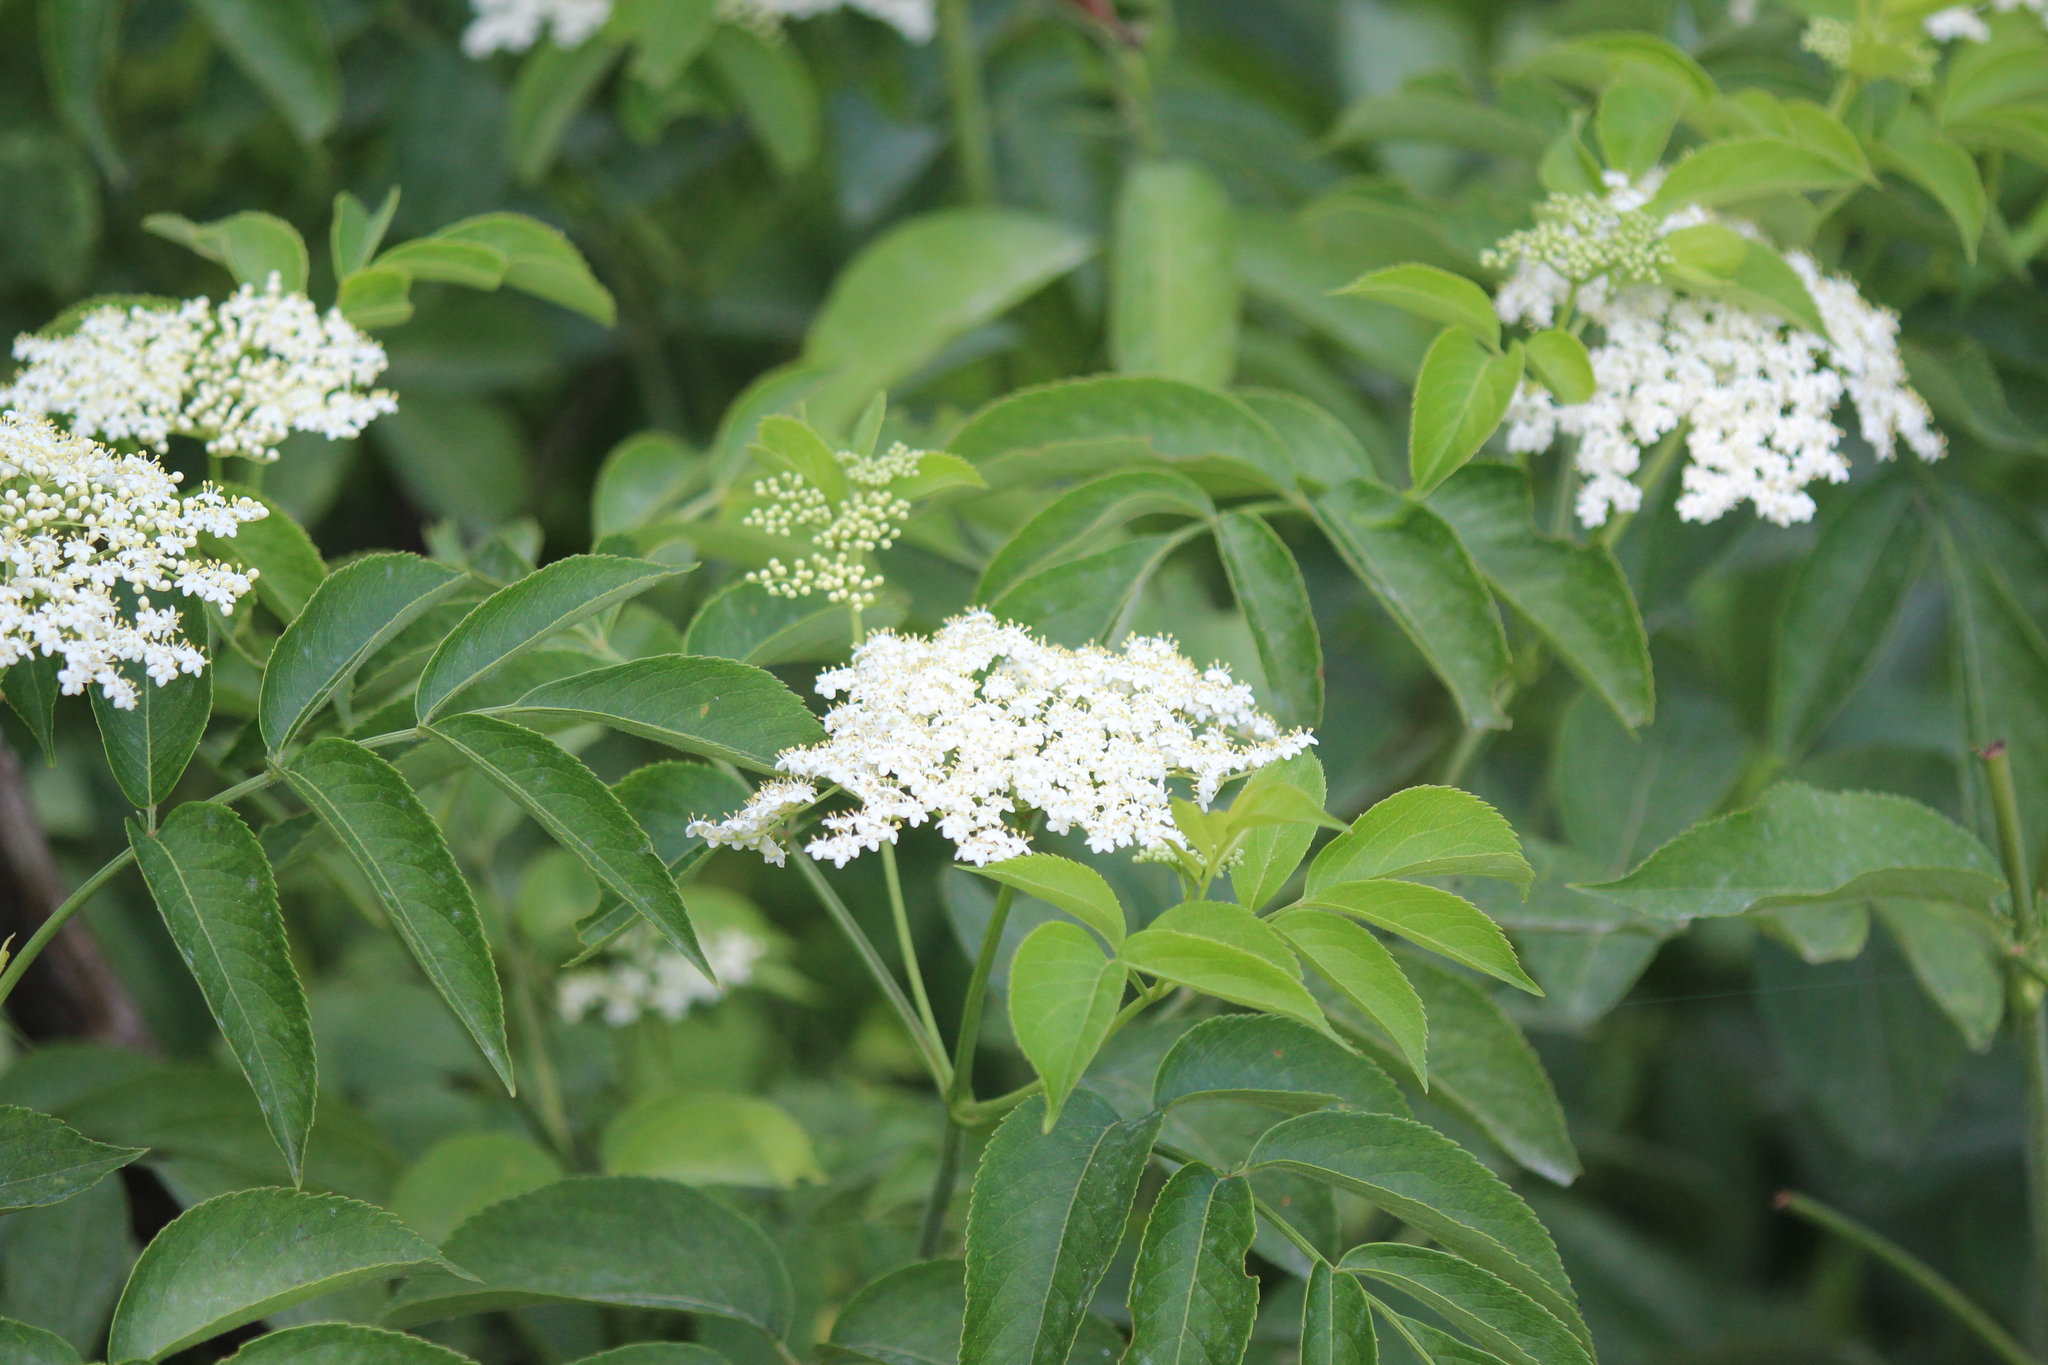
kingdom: Plantae
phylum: Tracheophyta
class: Magnoliopsida
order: Dipsacales
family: Viburnaceae
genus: Sambucus
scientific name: Sambucus canadensis
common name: American elder
